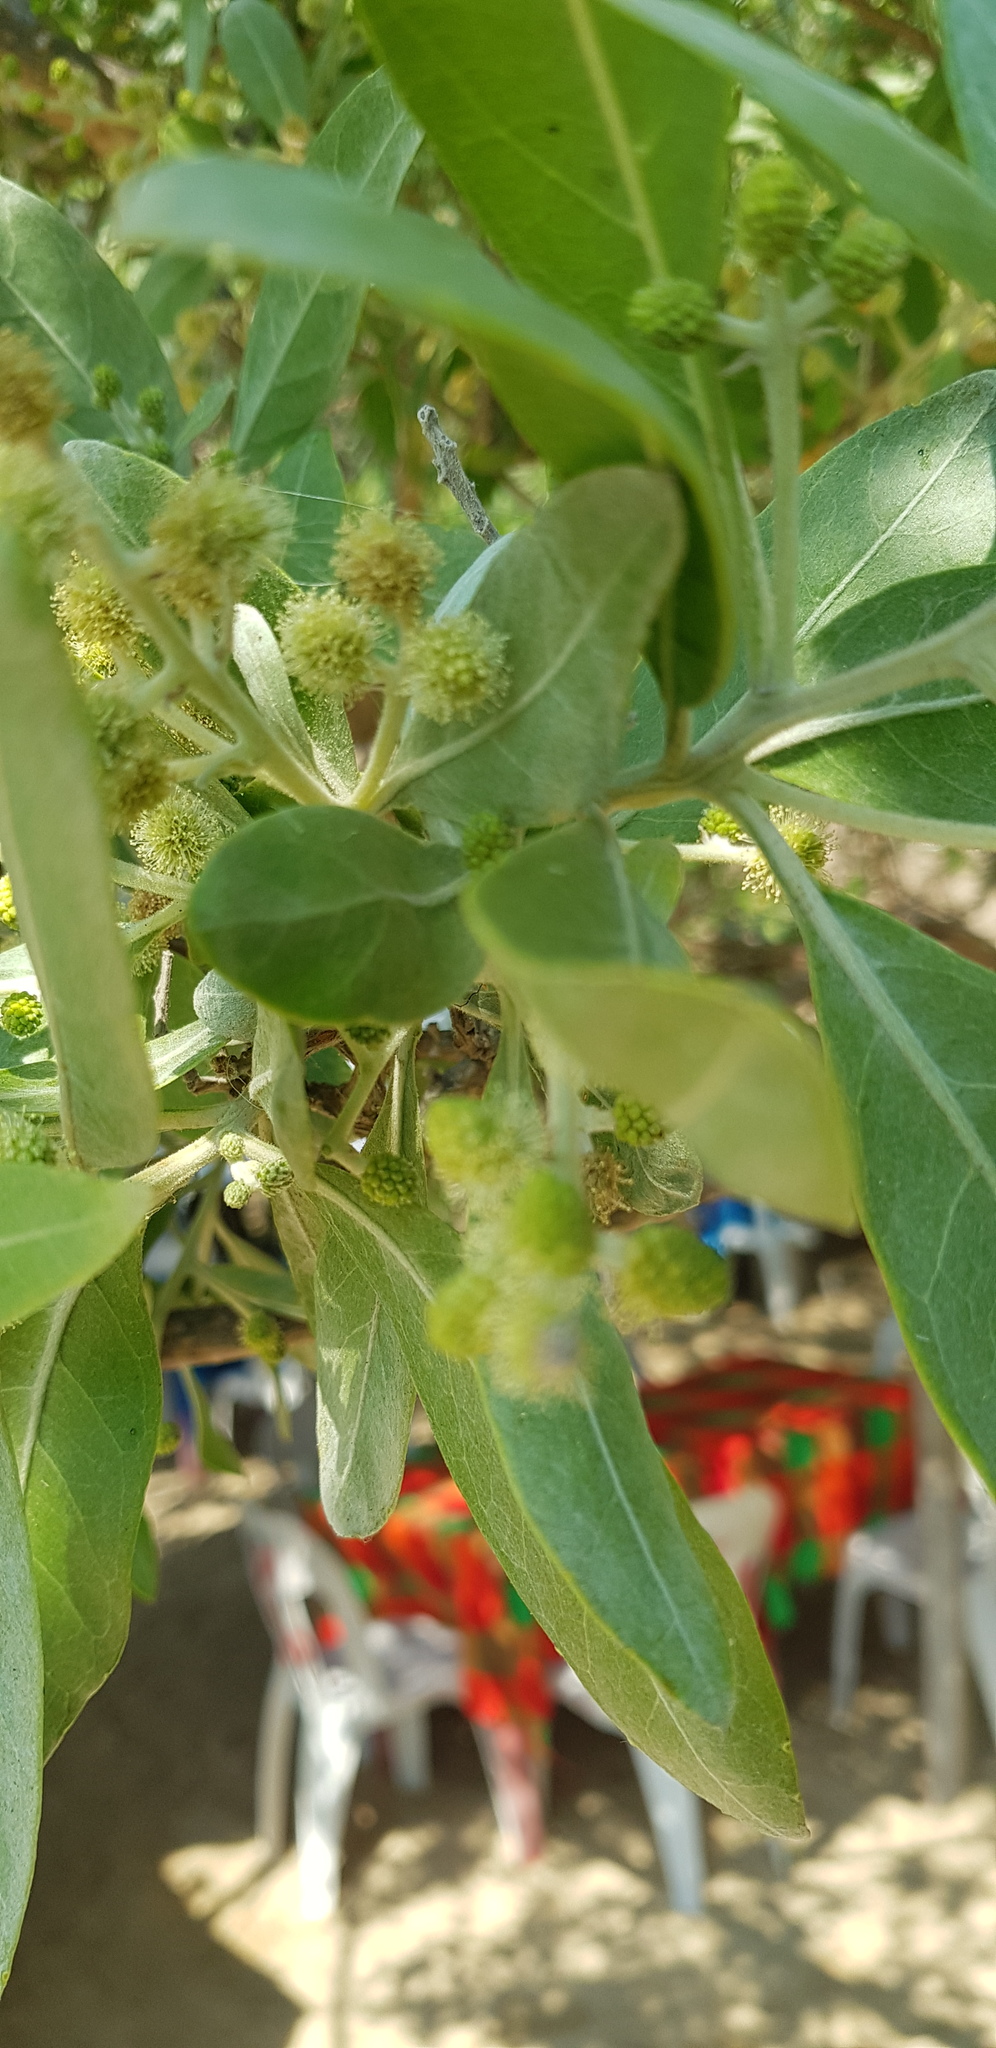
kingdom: Plantae
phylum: Tracheophyta
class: Magnoliopsida
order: Myrtales
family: Combretaceae
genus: Conocarpus
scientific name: Conocarpus erectus
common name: Button mangrove
